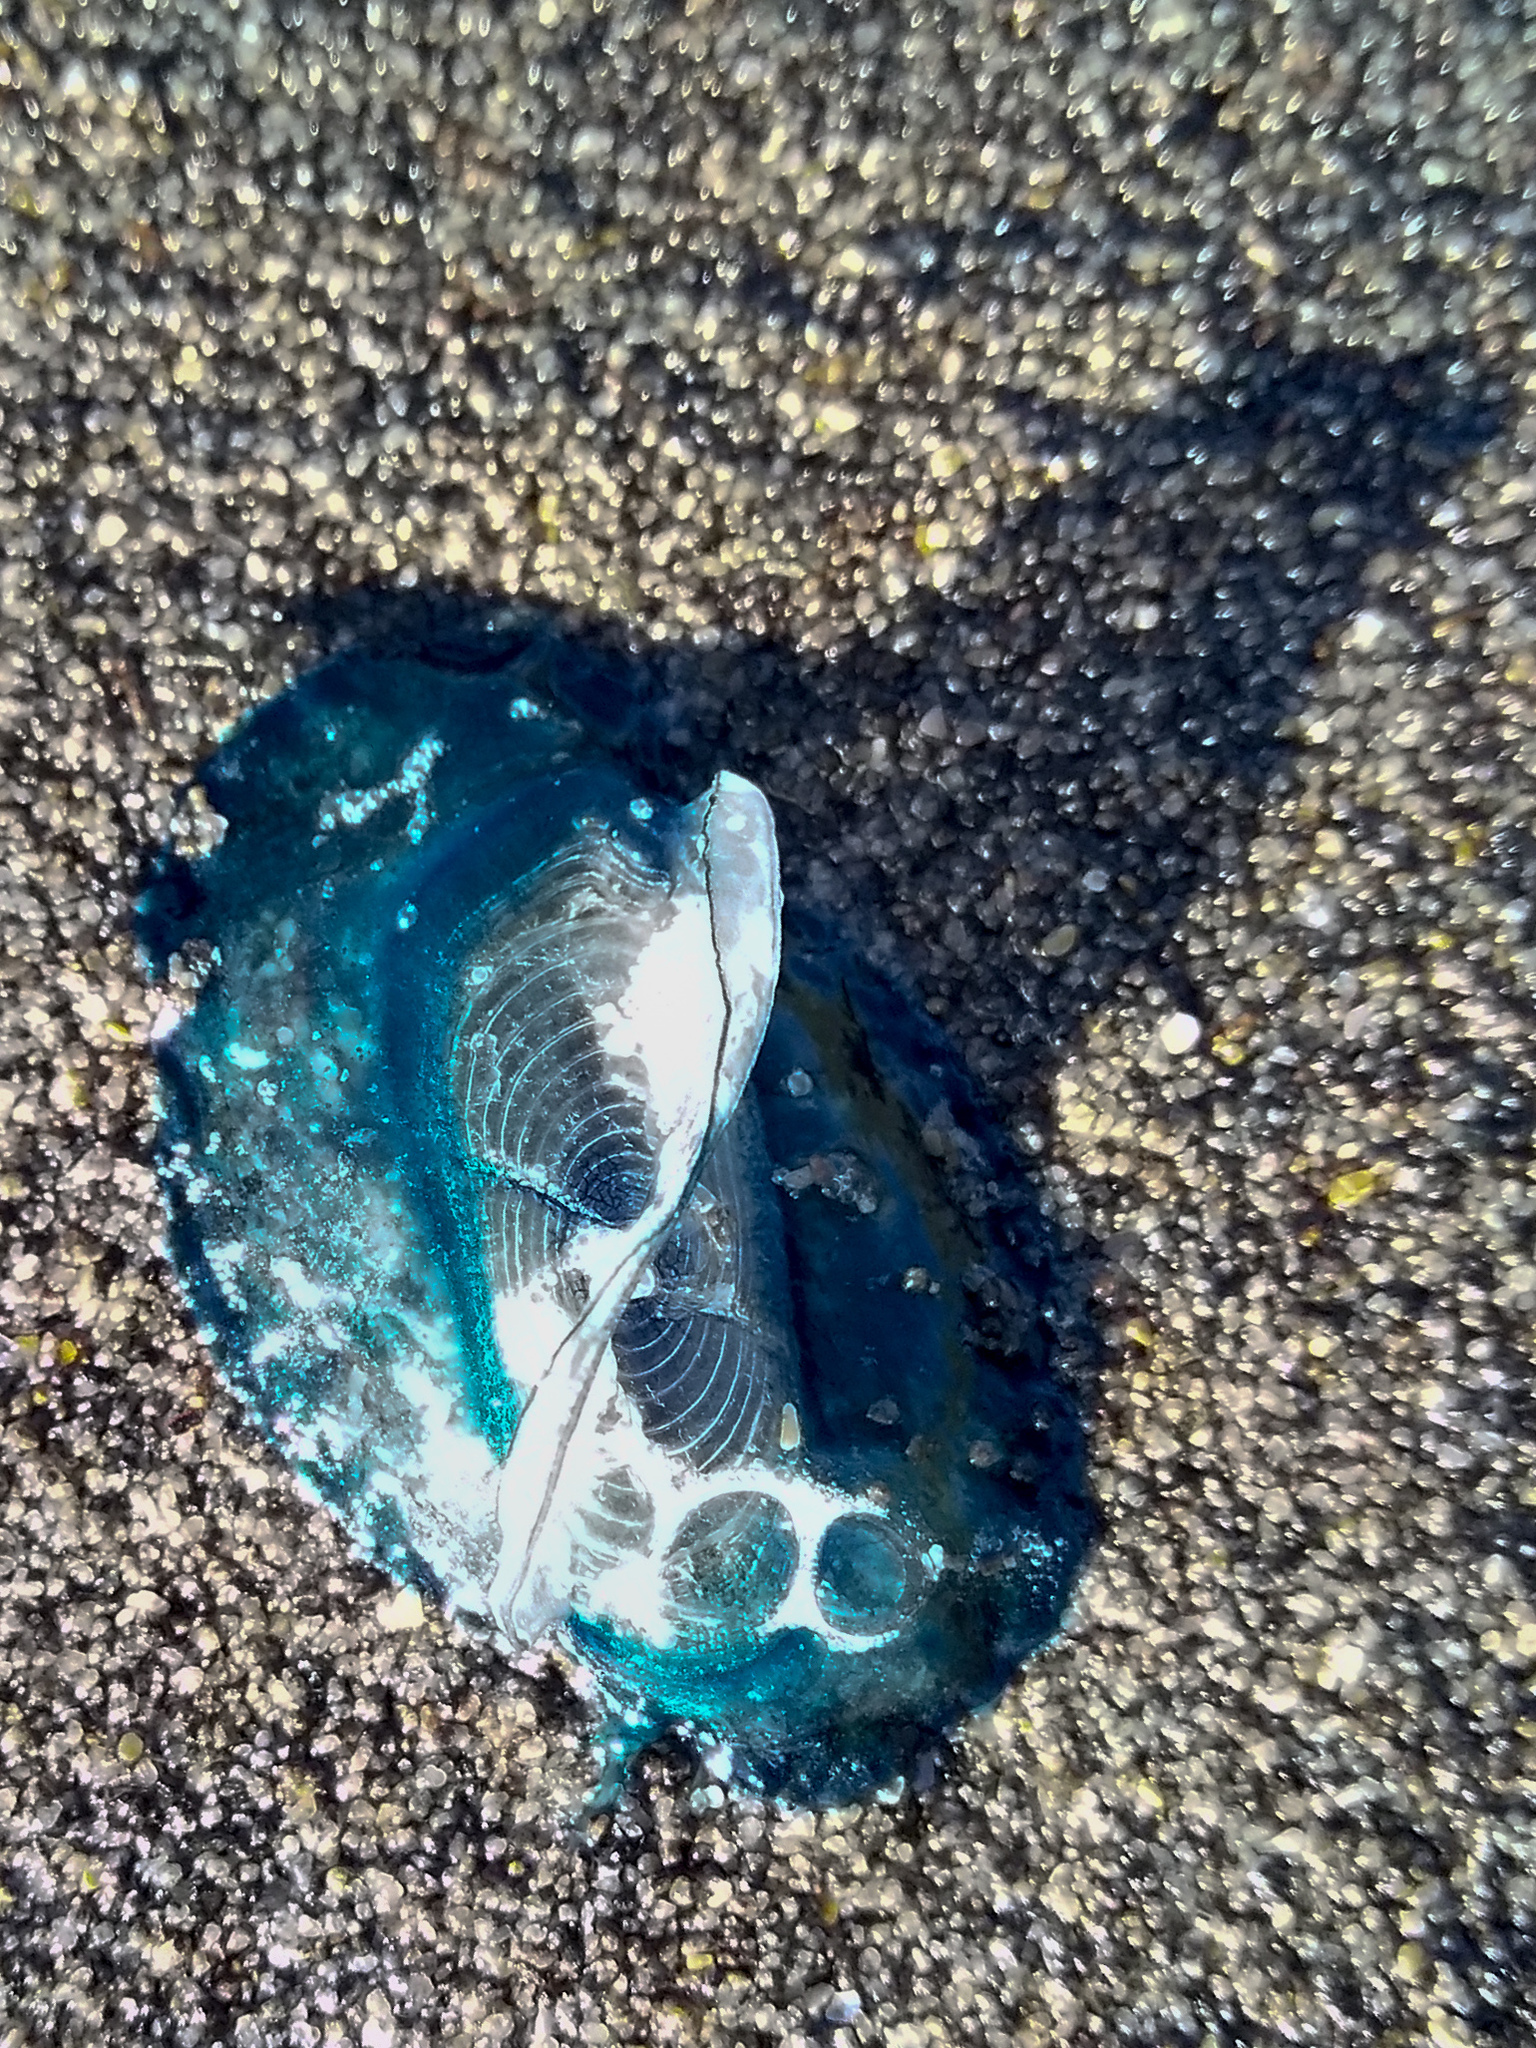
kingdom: Animalia
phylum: Cnidaria
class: Hydrozoa
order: Anthoathecata
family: Porpitidae
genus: Velella
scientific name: Velella velella
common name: By-the-wind-sailor
